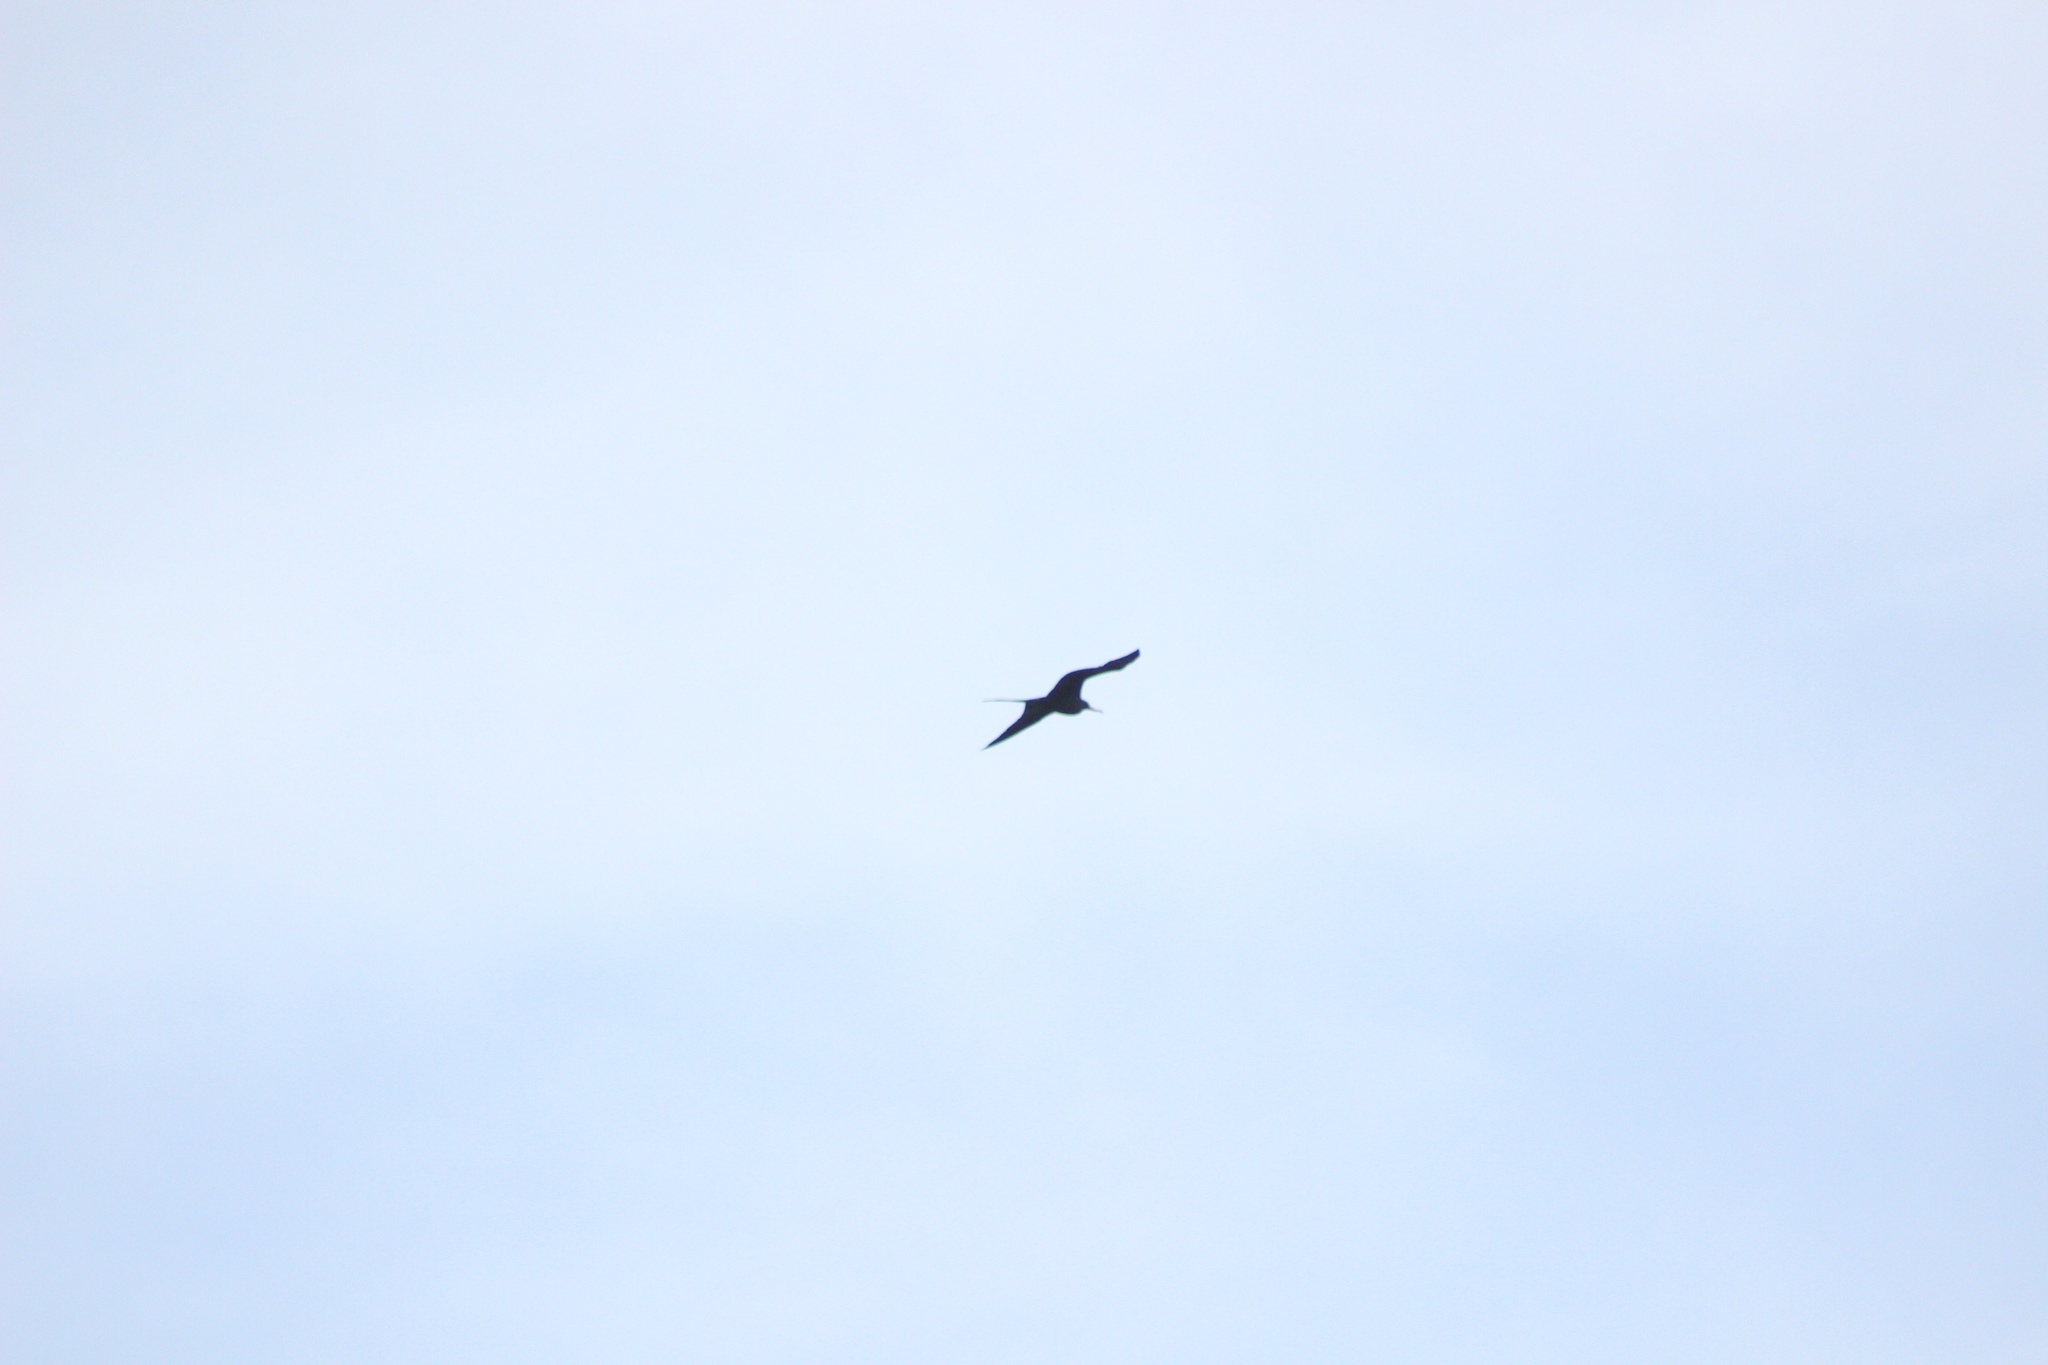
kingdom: Animalia
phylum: Chordata
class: Aves
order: Suliformes
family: Fregatidae
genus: Fregata
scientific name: Fregata magnificens
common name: Magnificent frigatebird
